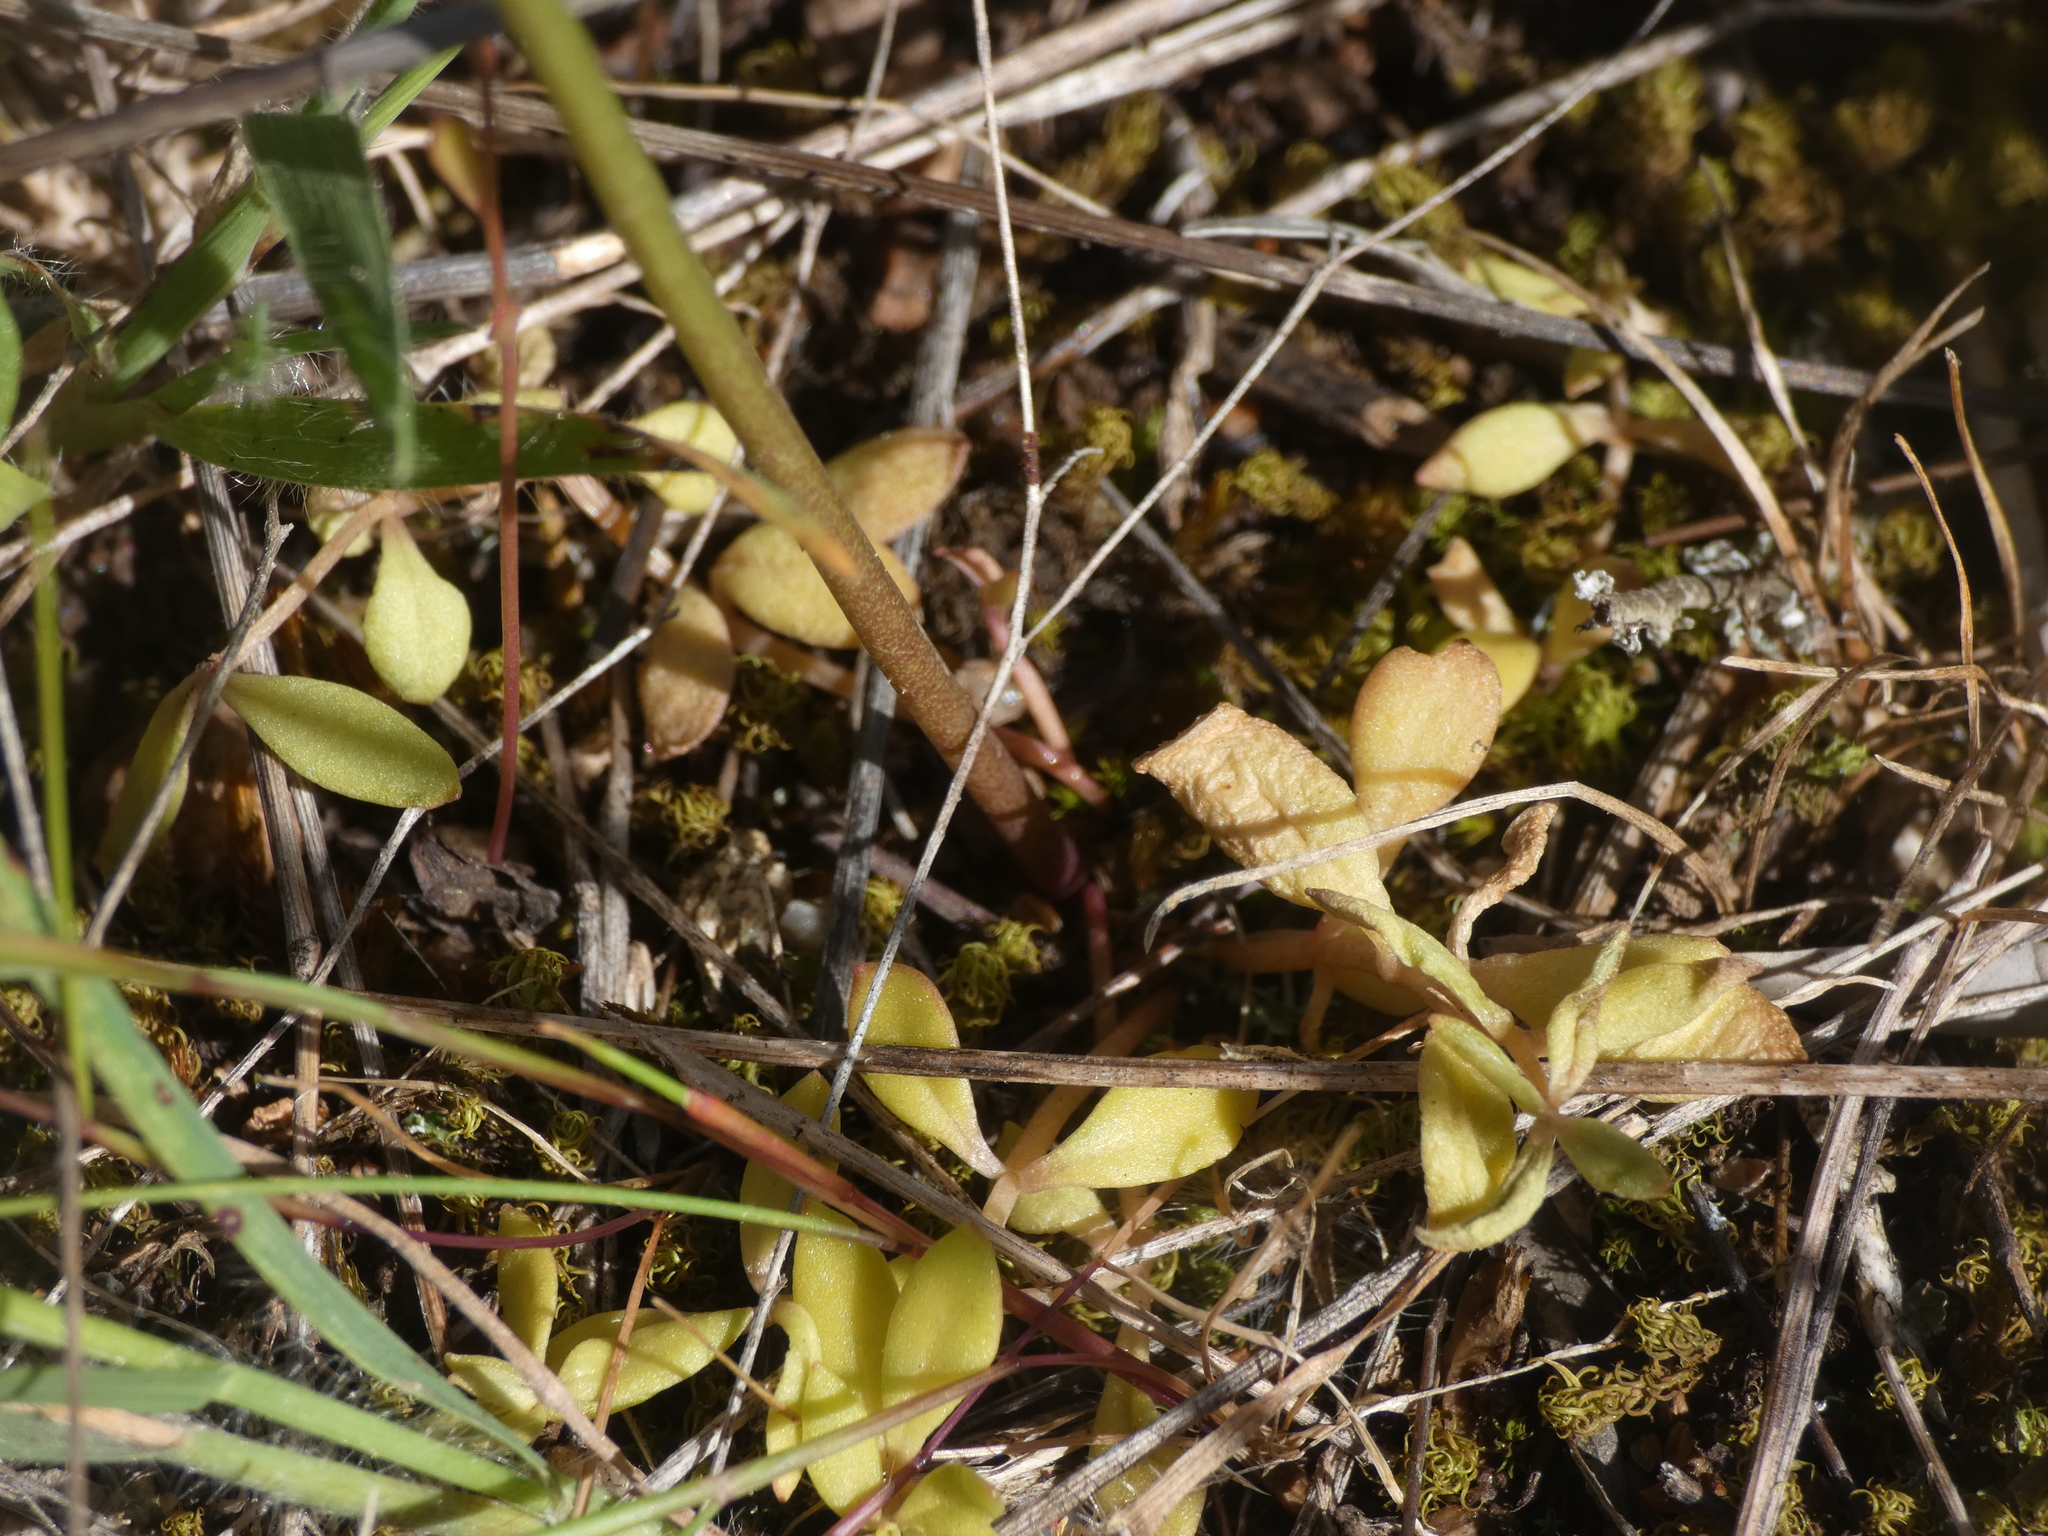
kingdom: Plantae
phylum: Tracheophyta
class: Magnoliopsida
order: Lamiales
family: Plantaginaceae
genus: Linaria
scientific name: Linaria pelisseriana
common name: Jersey toadflax
